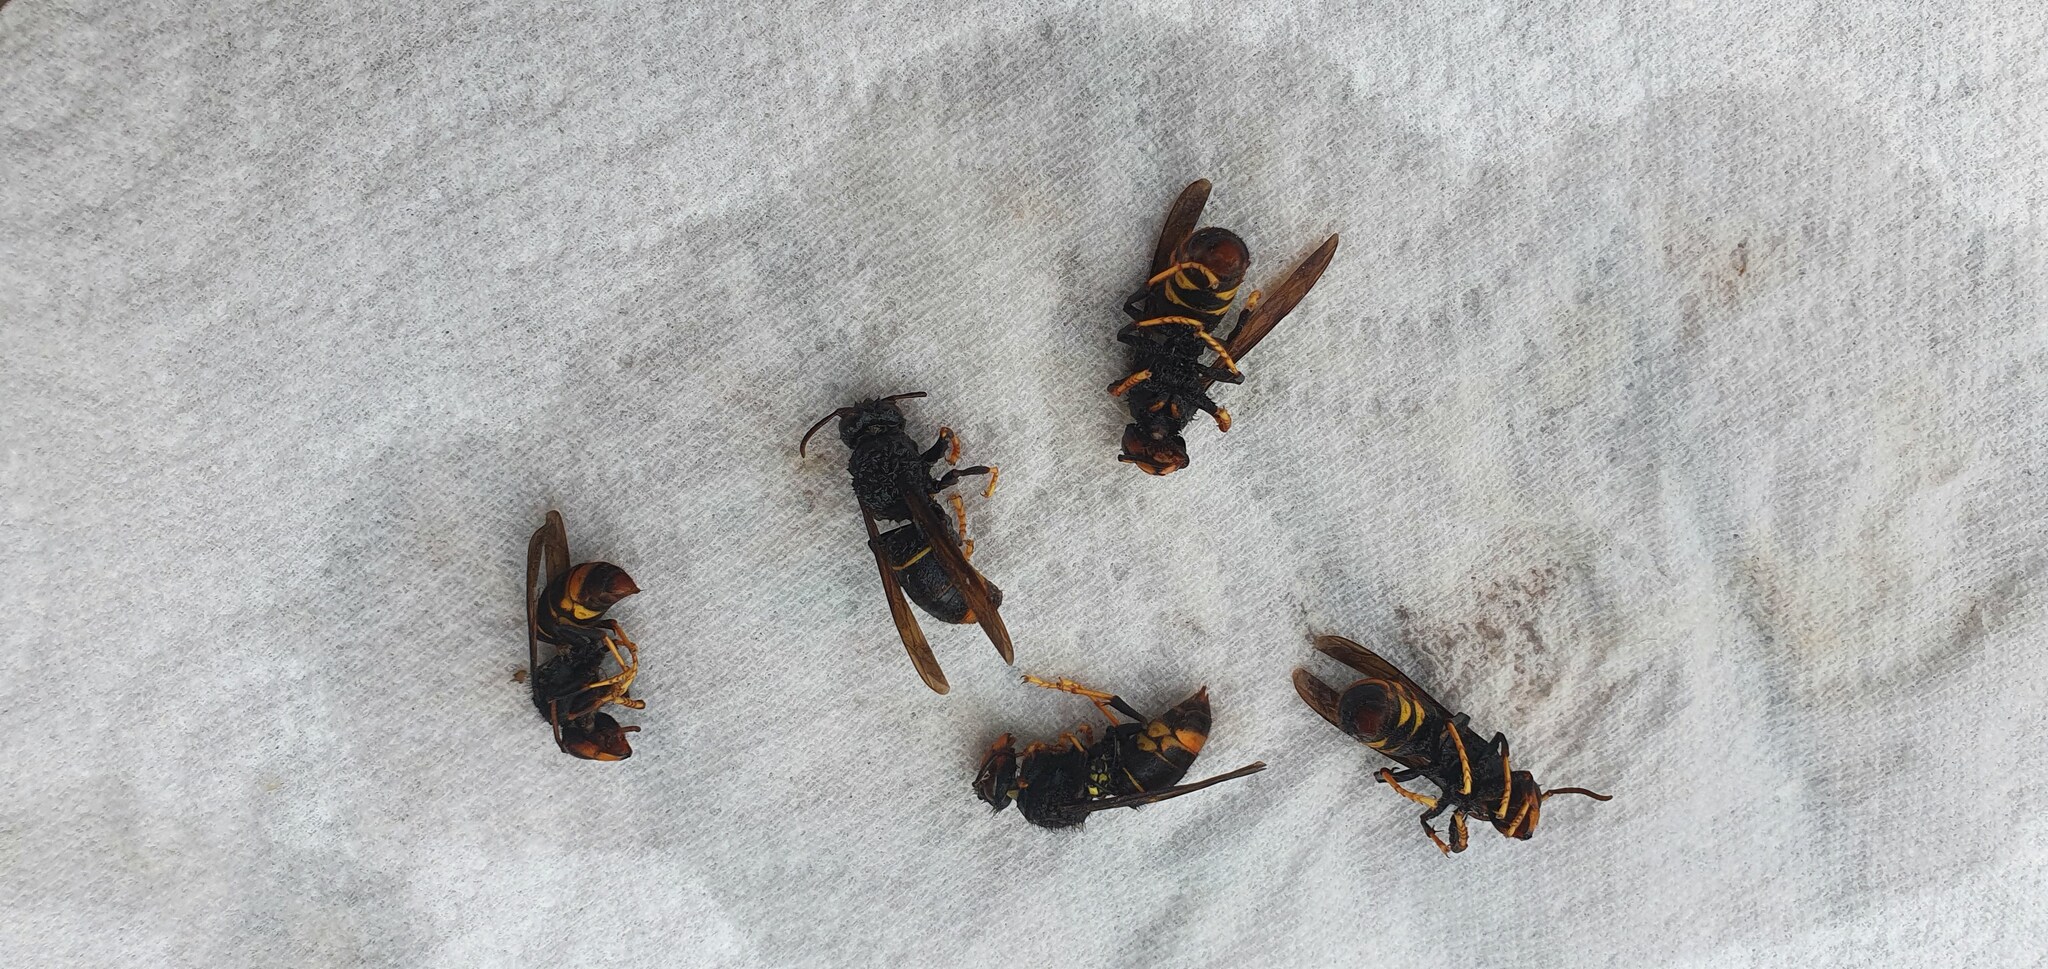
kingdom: Animalia
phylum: Arthropoda
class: Insecta
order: Hymenoptera
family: Vespidae
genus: Vespa
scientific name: Vespa velutina
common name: Asian hornet
